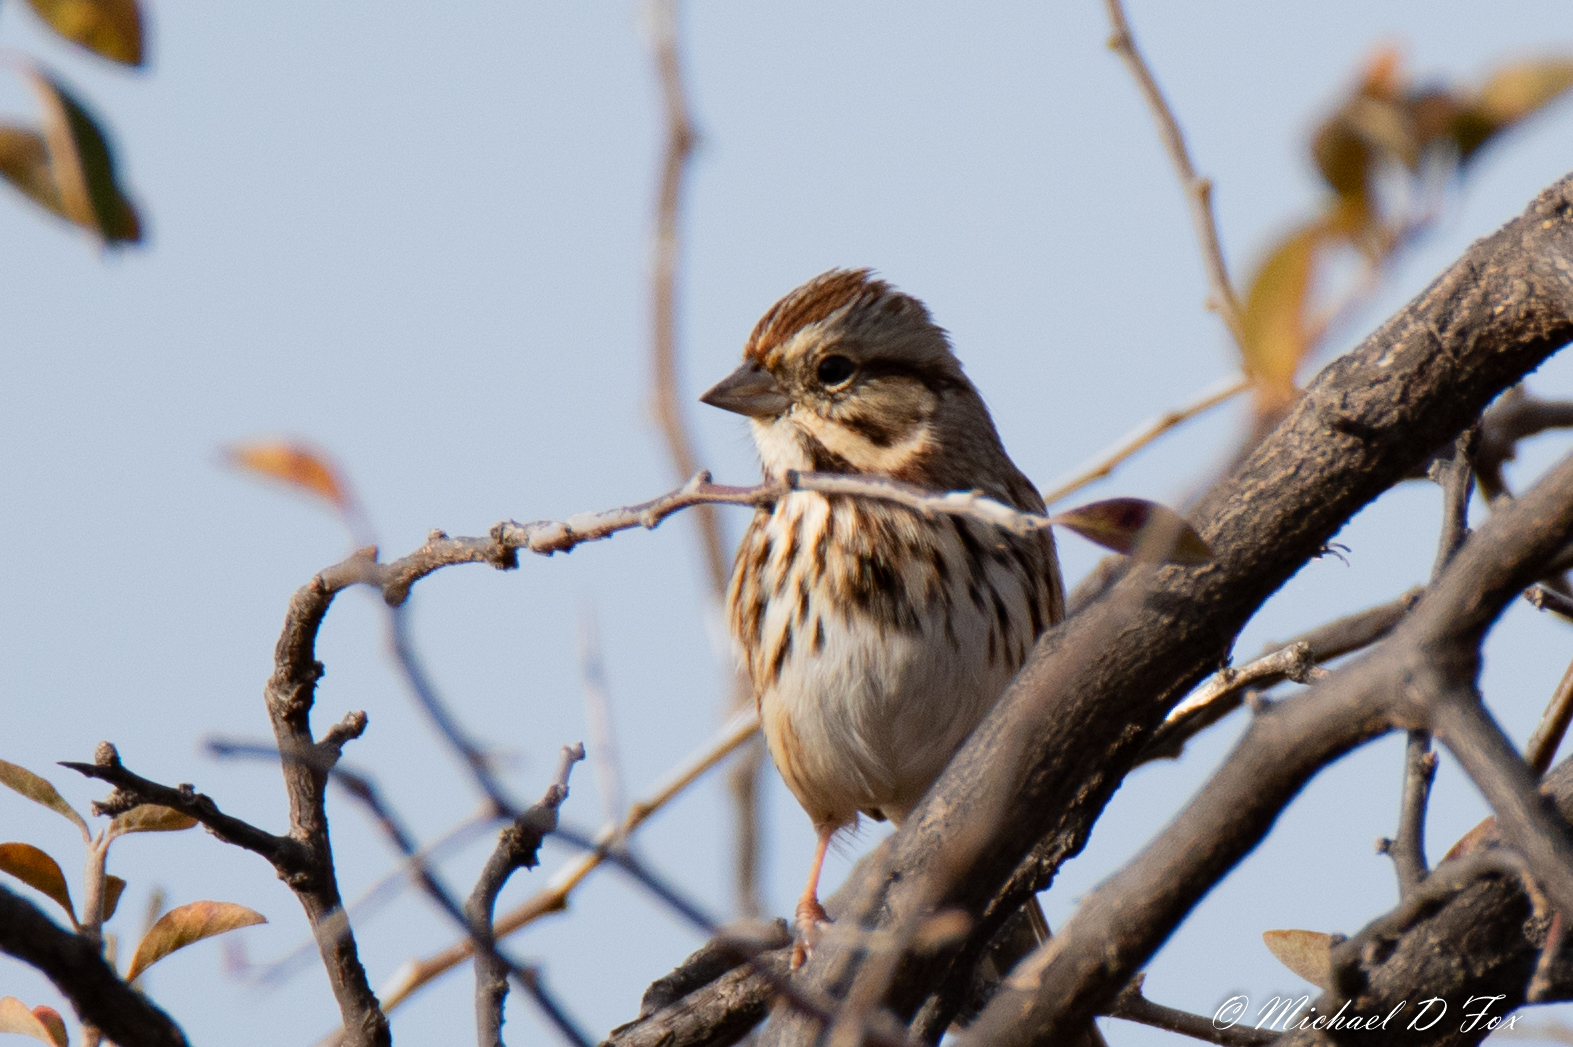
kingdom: Animalia
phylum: Chordata
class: Aves
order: Passeriformes
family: Passerellidae
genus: Melospiza
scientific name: Melospiza melodia
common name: Song sparrow
